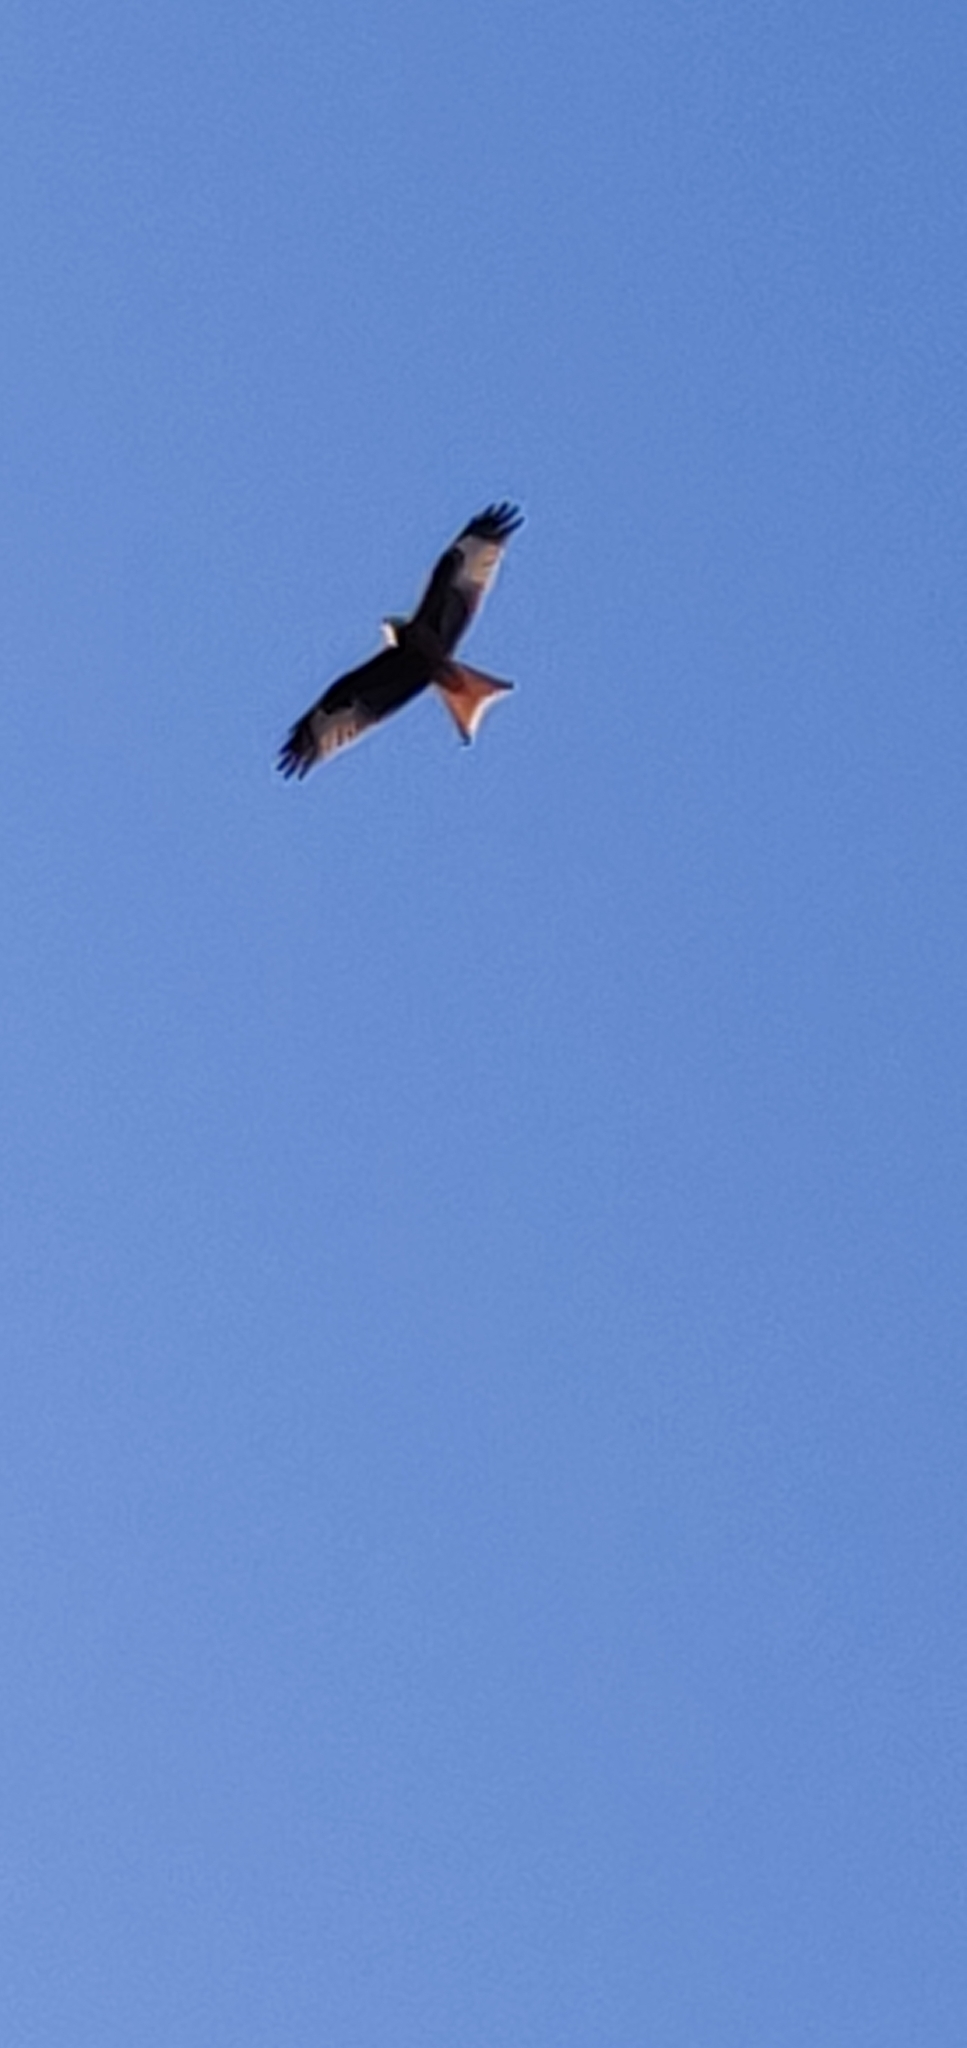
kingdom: Animalia
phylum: Chordata
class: Aves
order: Accipitriformes
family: Accipitridae
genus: Milvus
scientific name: Milvus milvus
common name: Red kite
